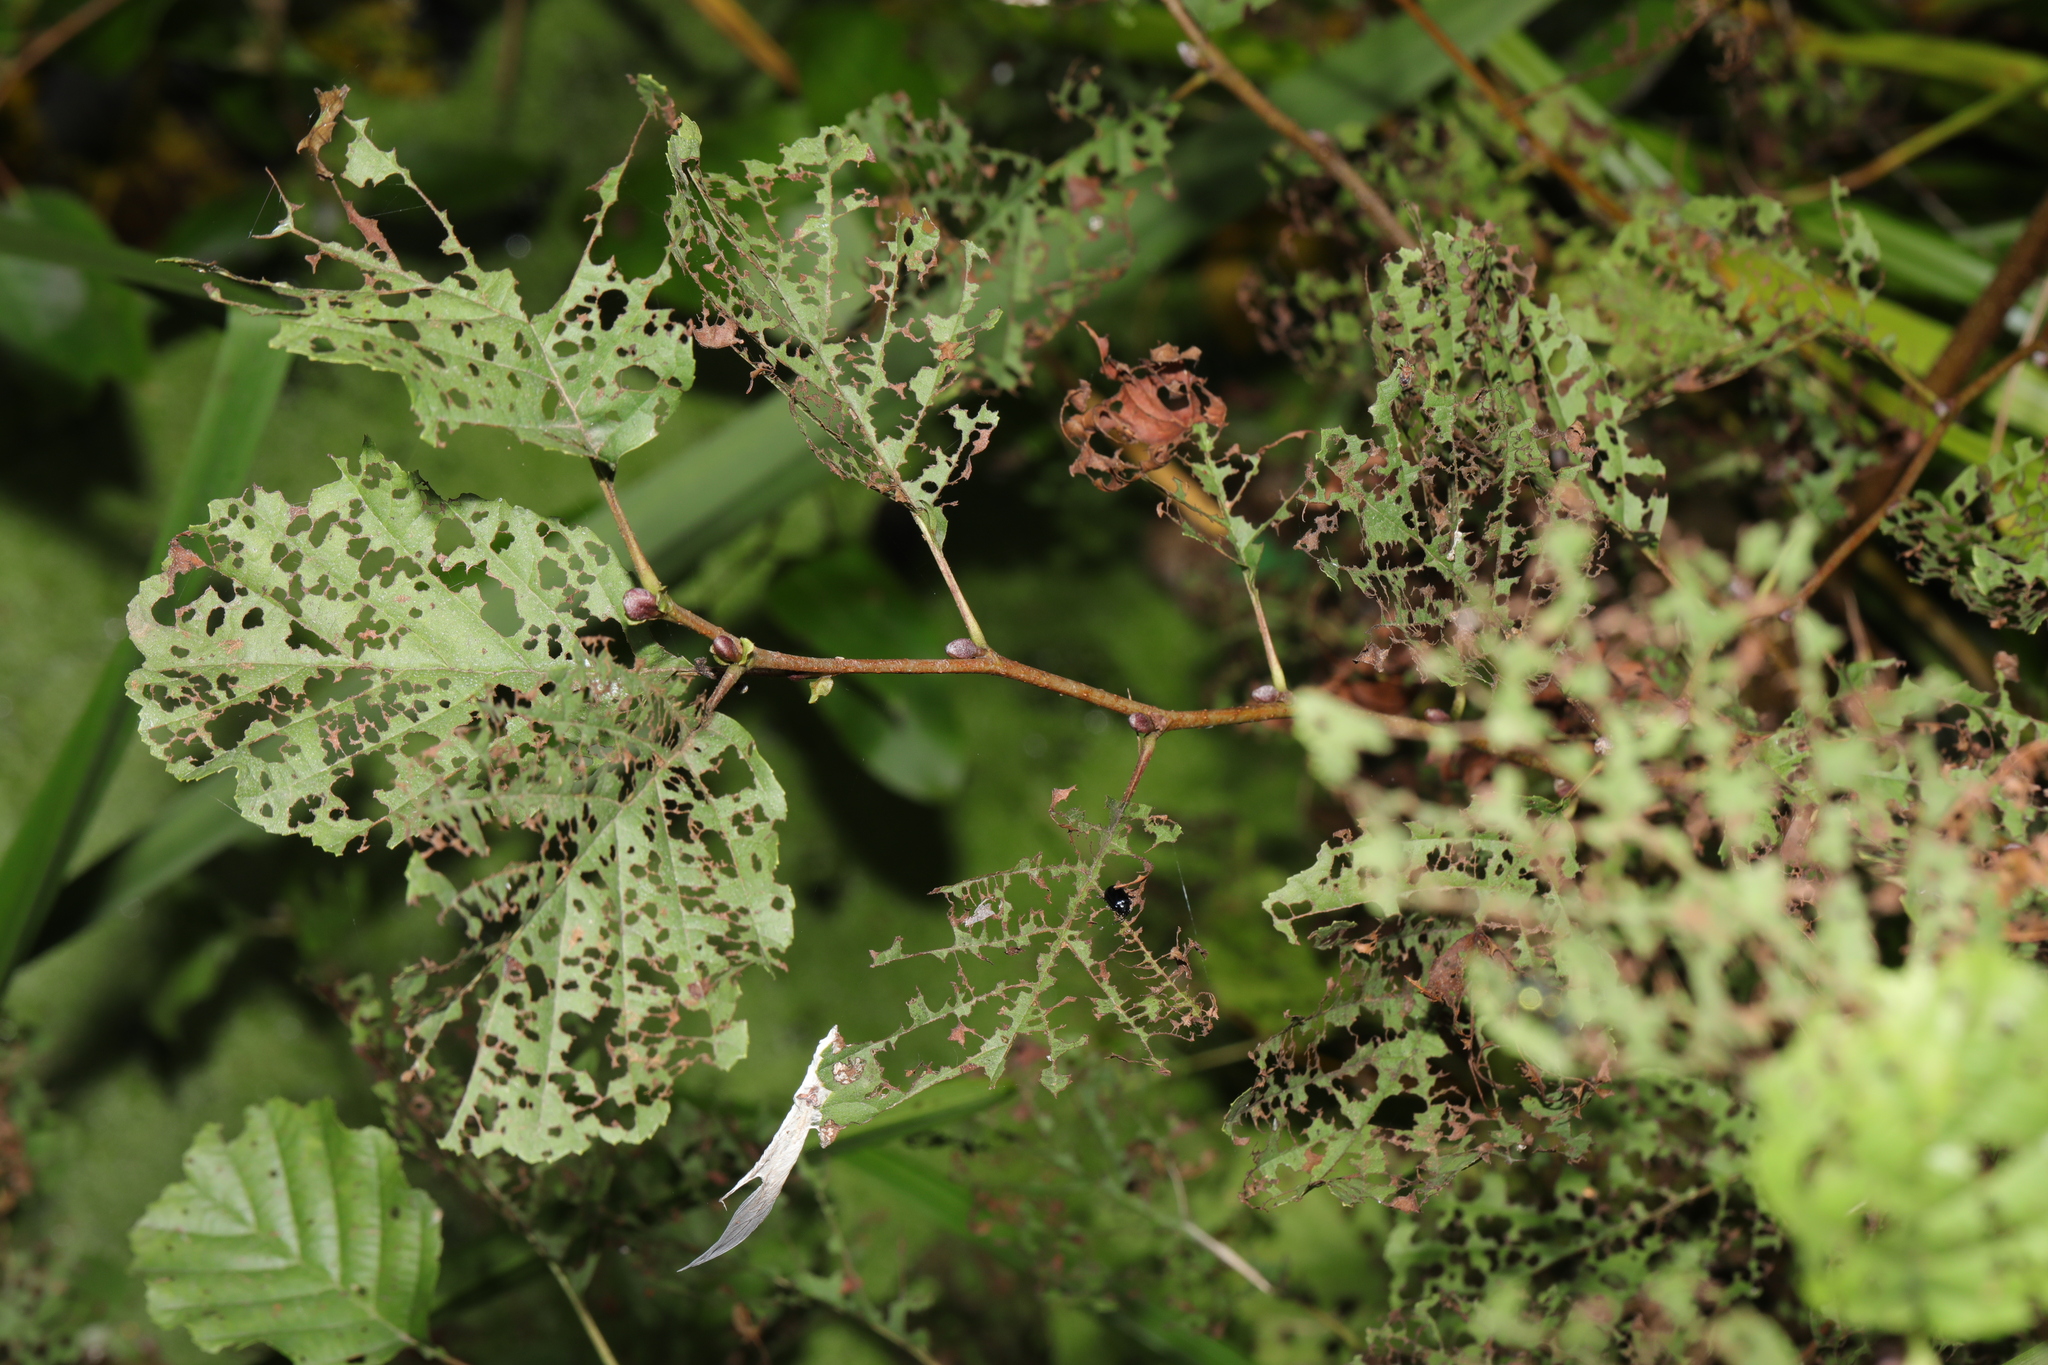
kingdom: Animalia
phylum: Arthropoda
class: Insecta
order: Coleoptera
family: Chrysomelidae
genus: Agelastica
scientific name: Agelastica alni
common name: Alder leaf beetle
